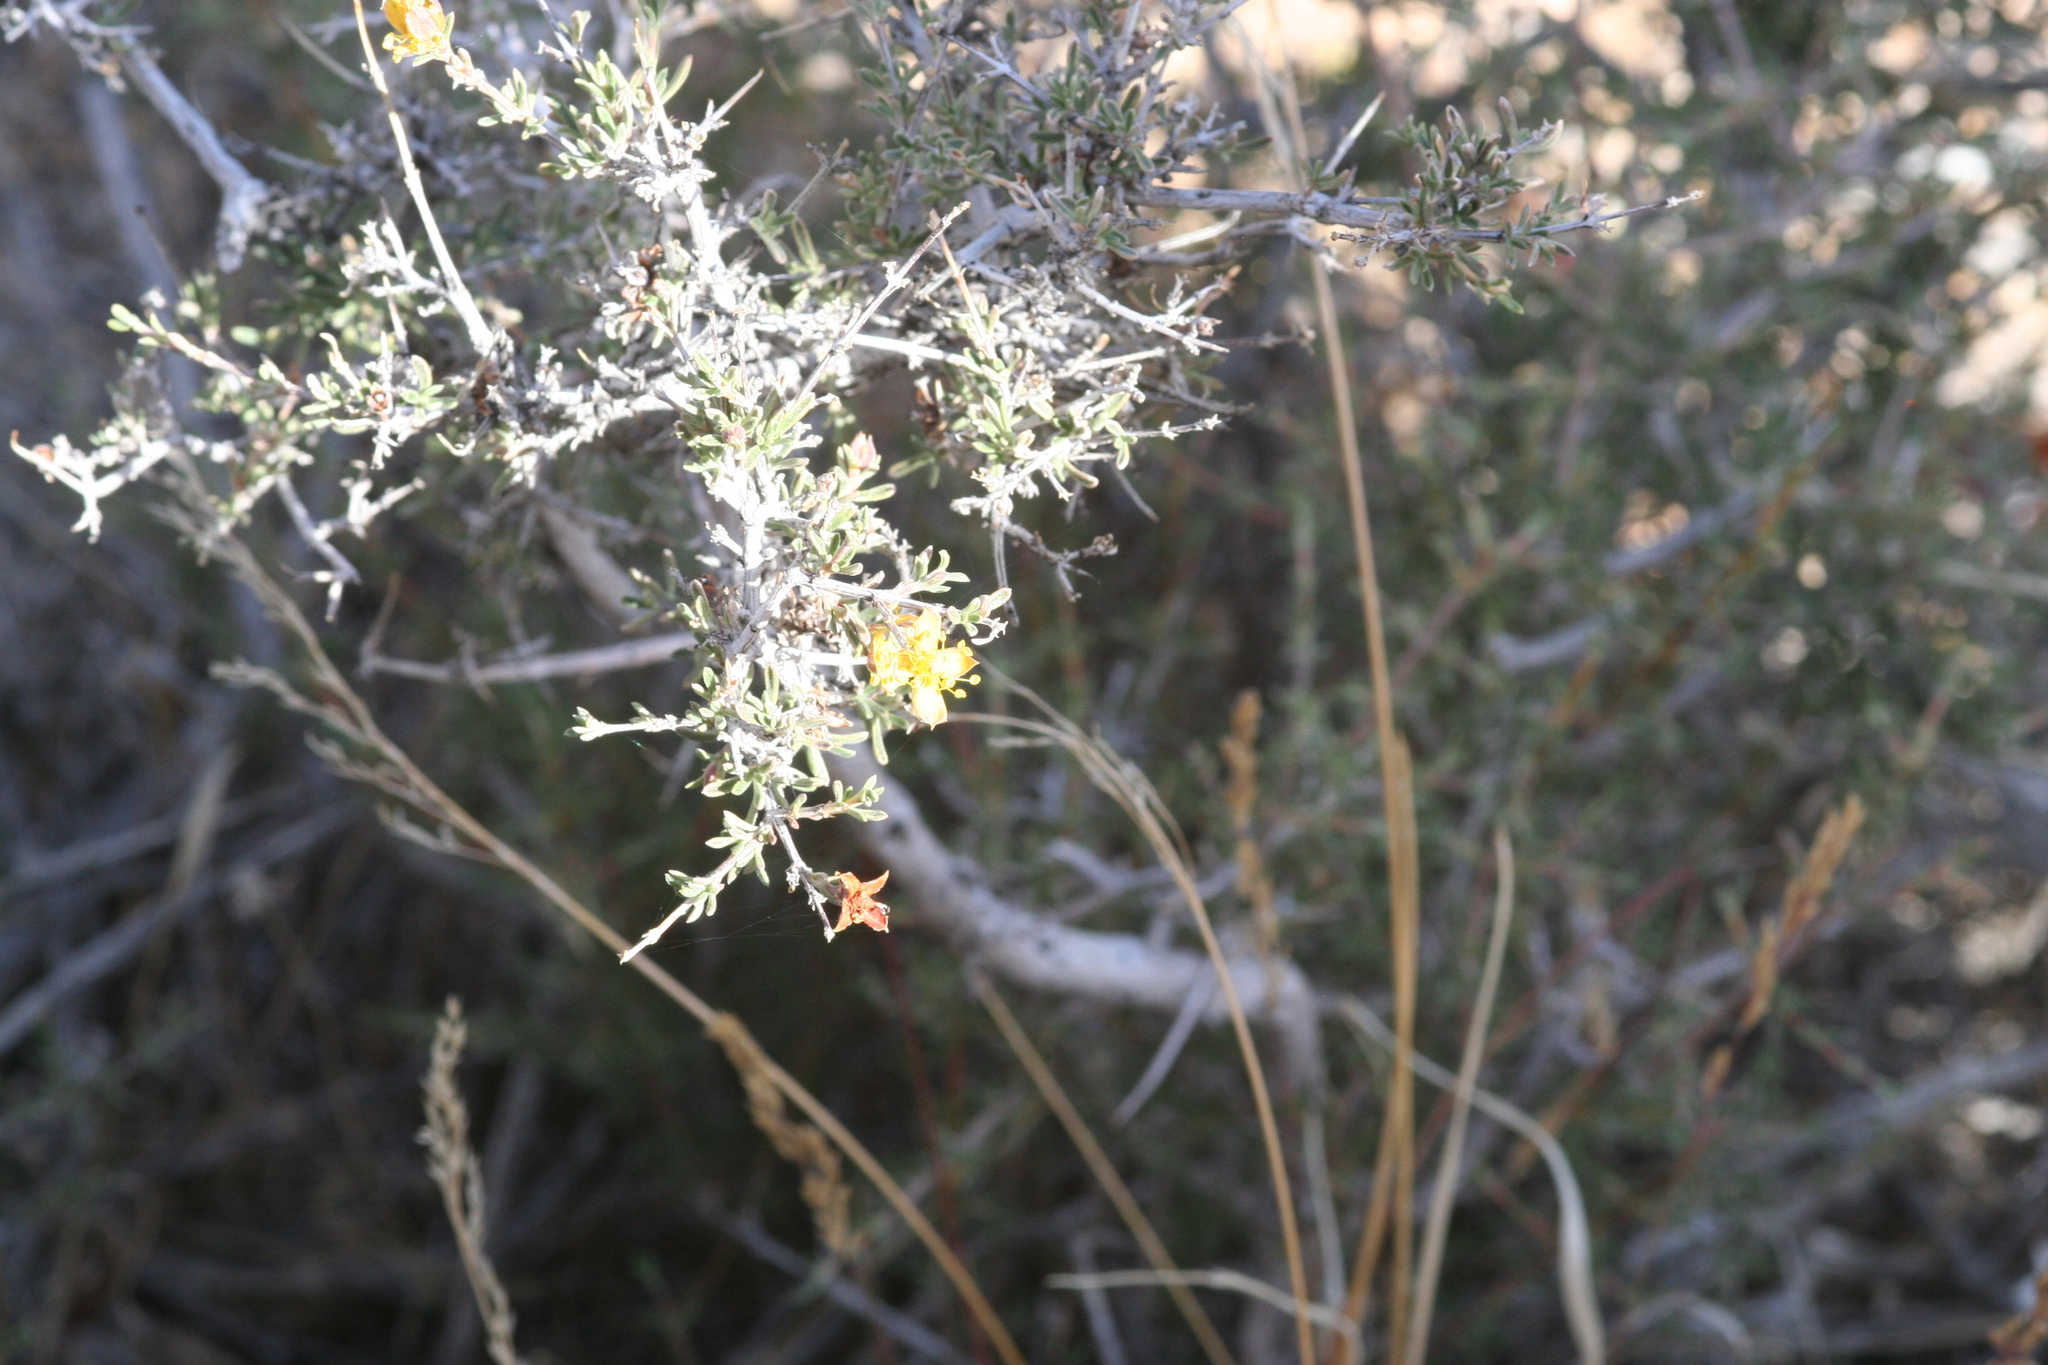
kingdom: Plantae
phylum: Tracheophyta
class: Magnoliopsida
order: Rosales
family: Rosaceae
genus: Coleogyne
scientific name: Coleogyne ramosissima
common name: Blackbrush
